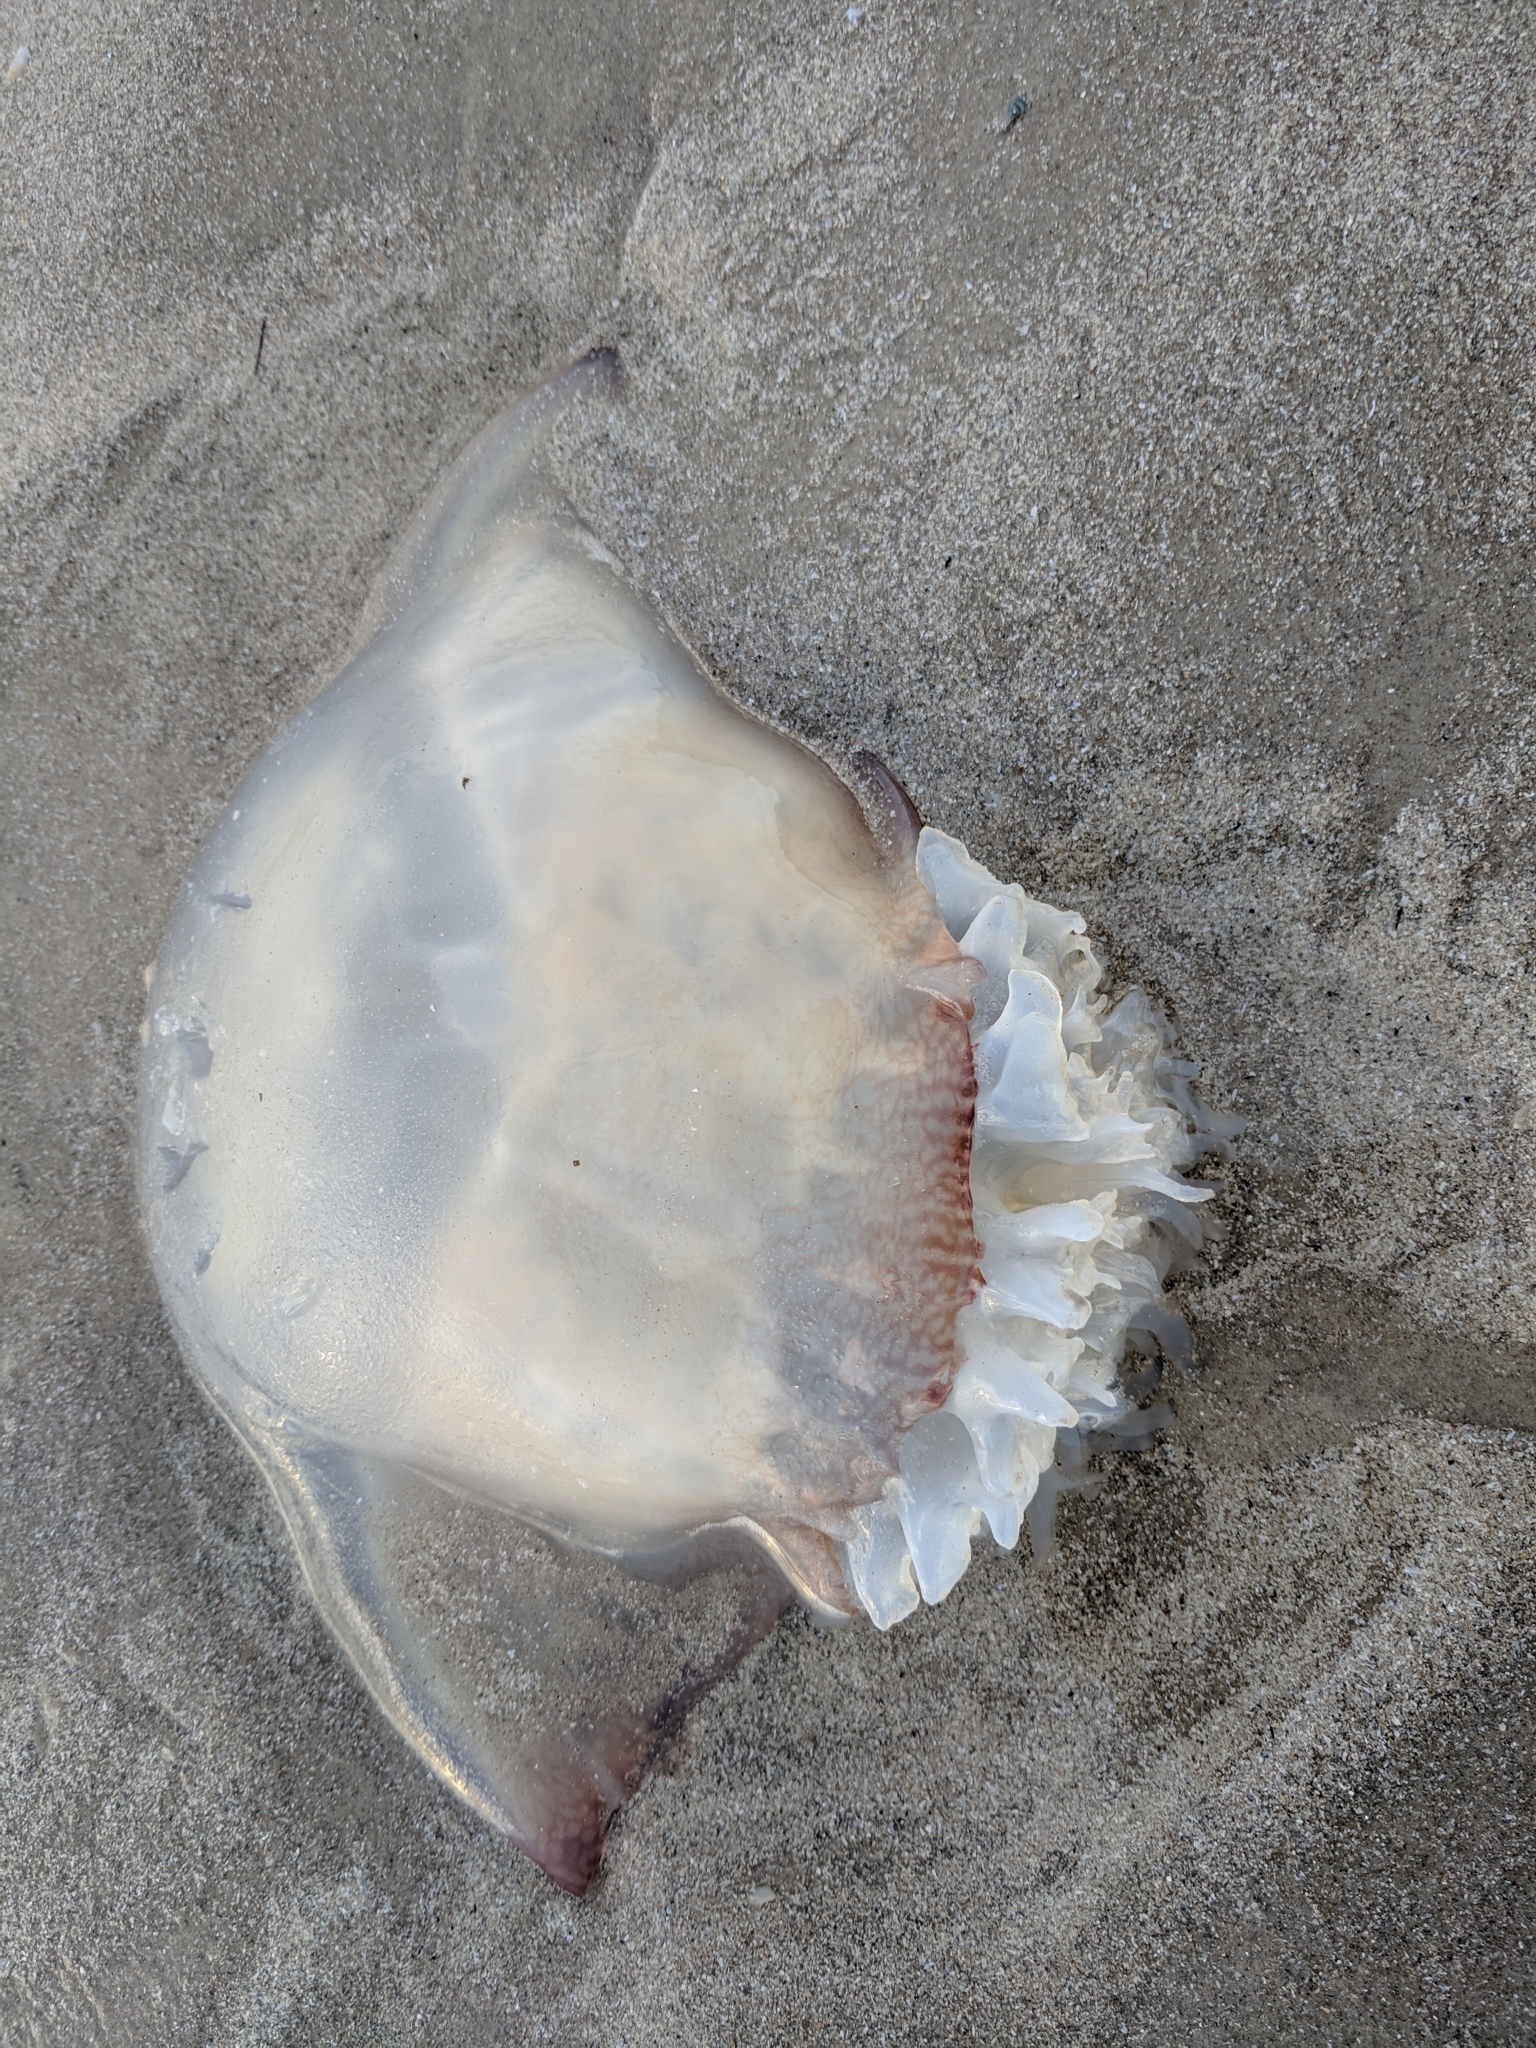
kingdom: Animalia
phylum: Cnidaria
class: Scyphozoa
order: Rhizostomeae
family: Stomolophidae
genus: Stomolophus
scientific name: Stomolophus meleagris
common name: Cabbagehead
